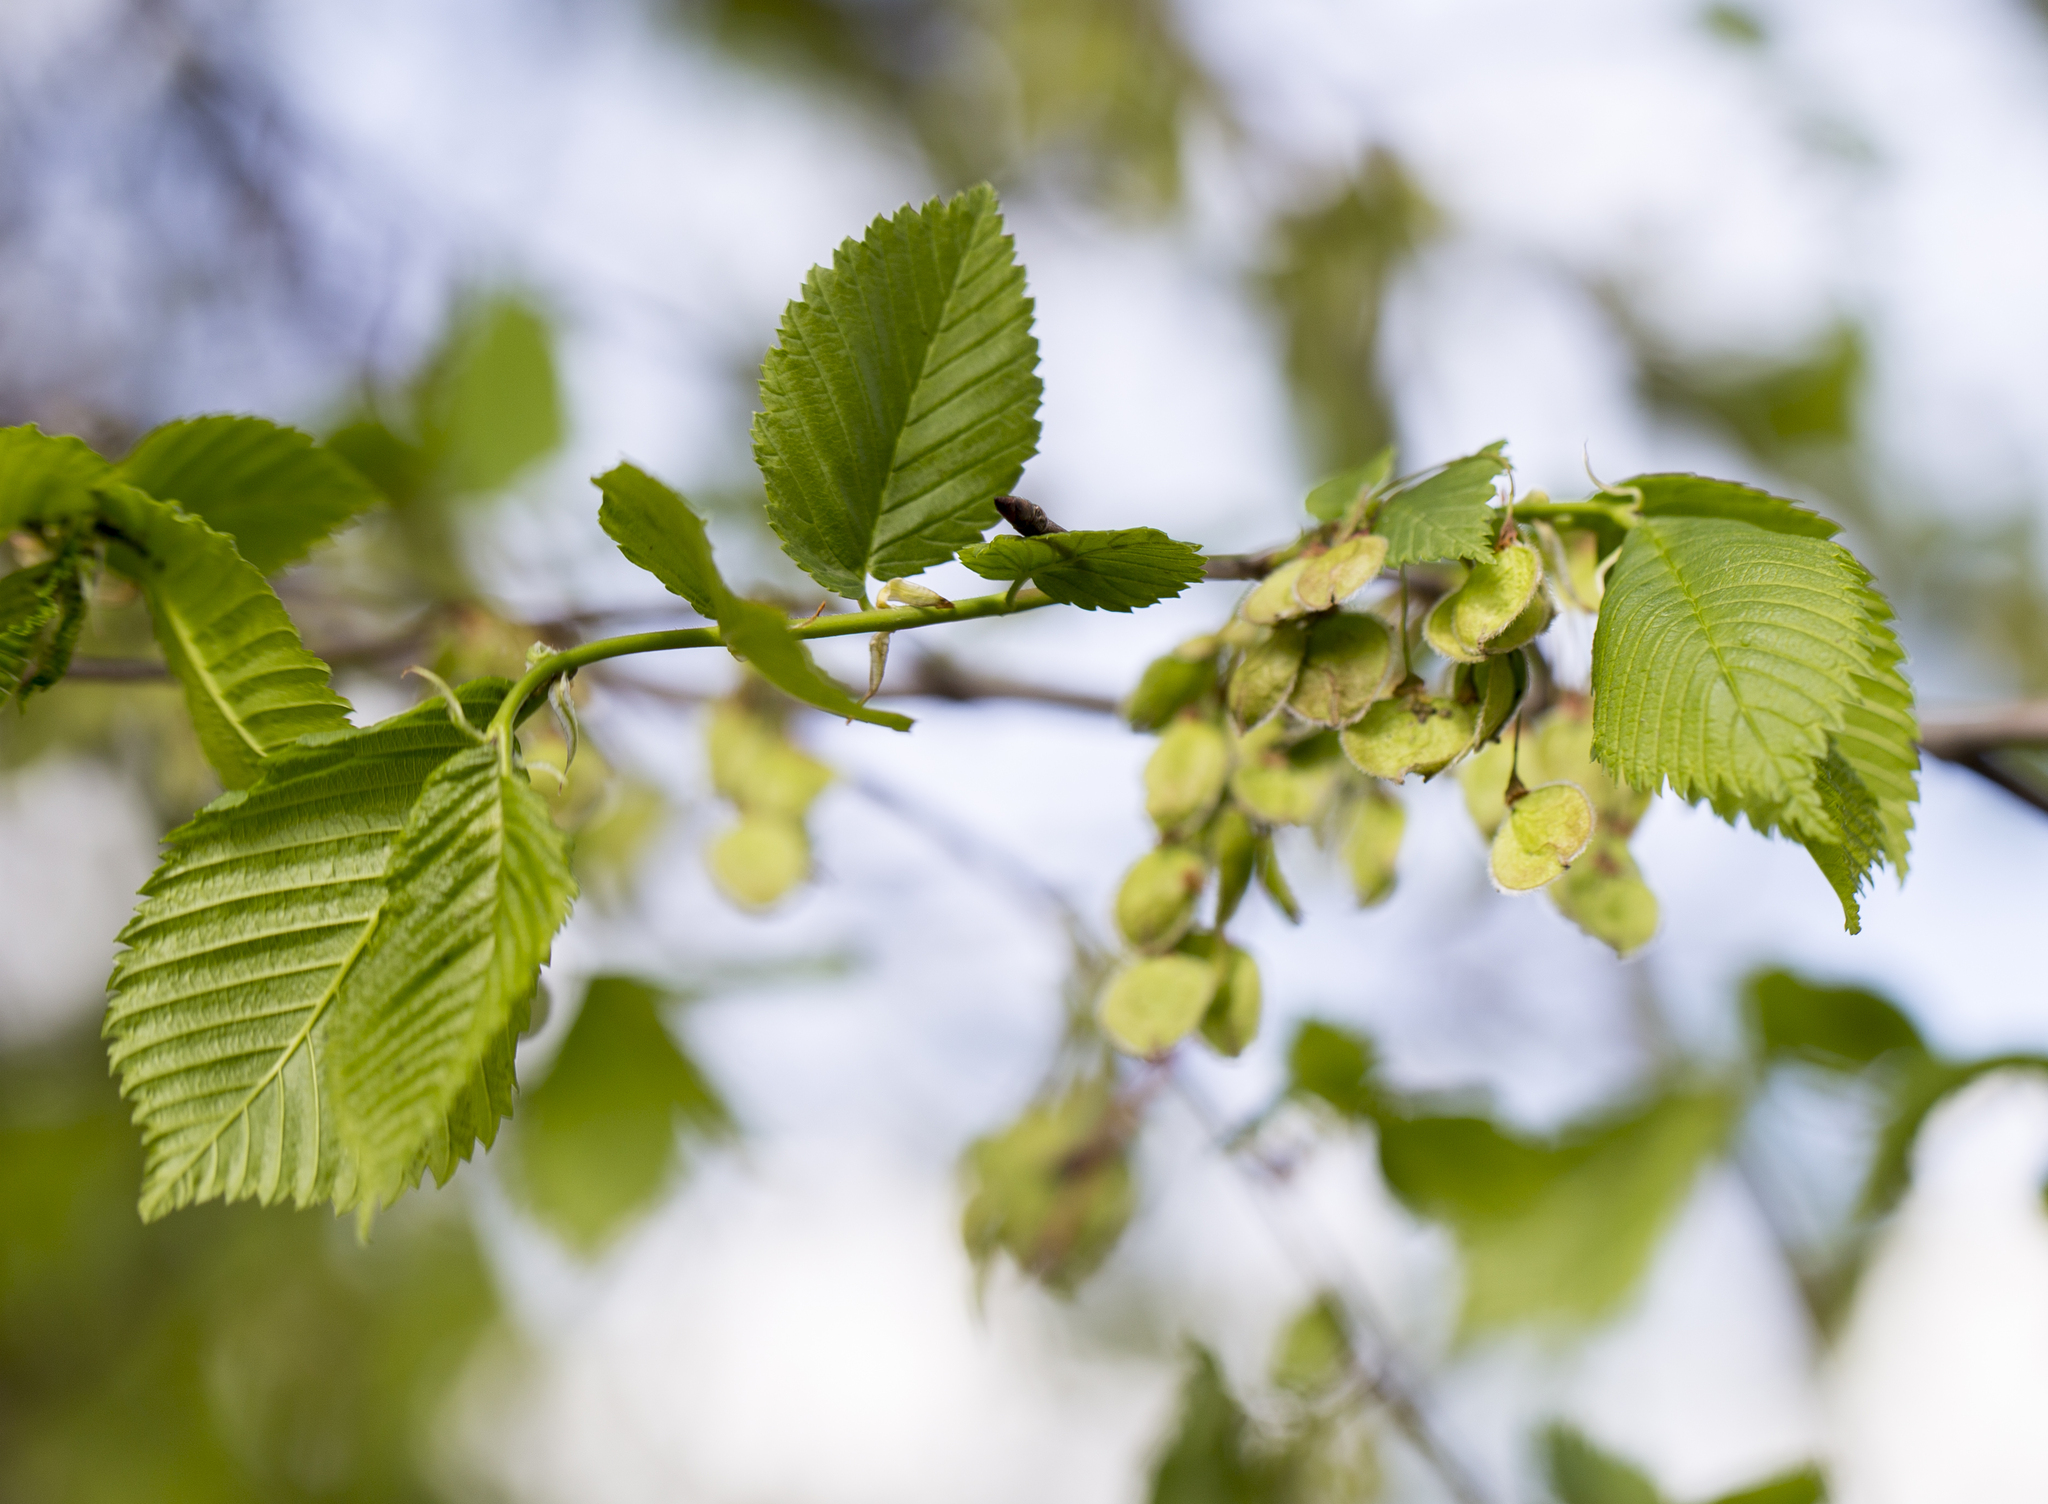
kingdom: Plantae
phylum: Tracheophyta
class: Magnoliopsida
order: Rosales
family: Ulmaceae
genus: Ulmus
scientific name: Ulmus laevis
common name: European white-elm
